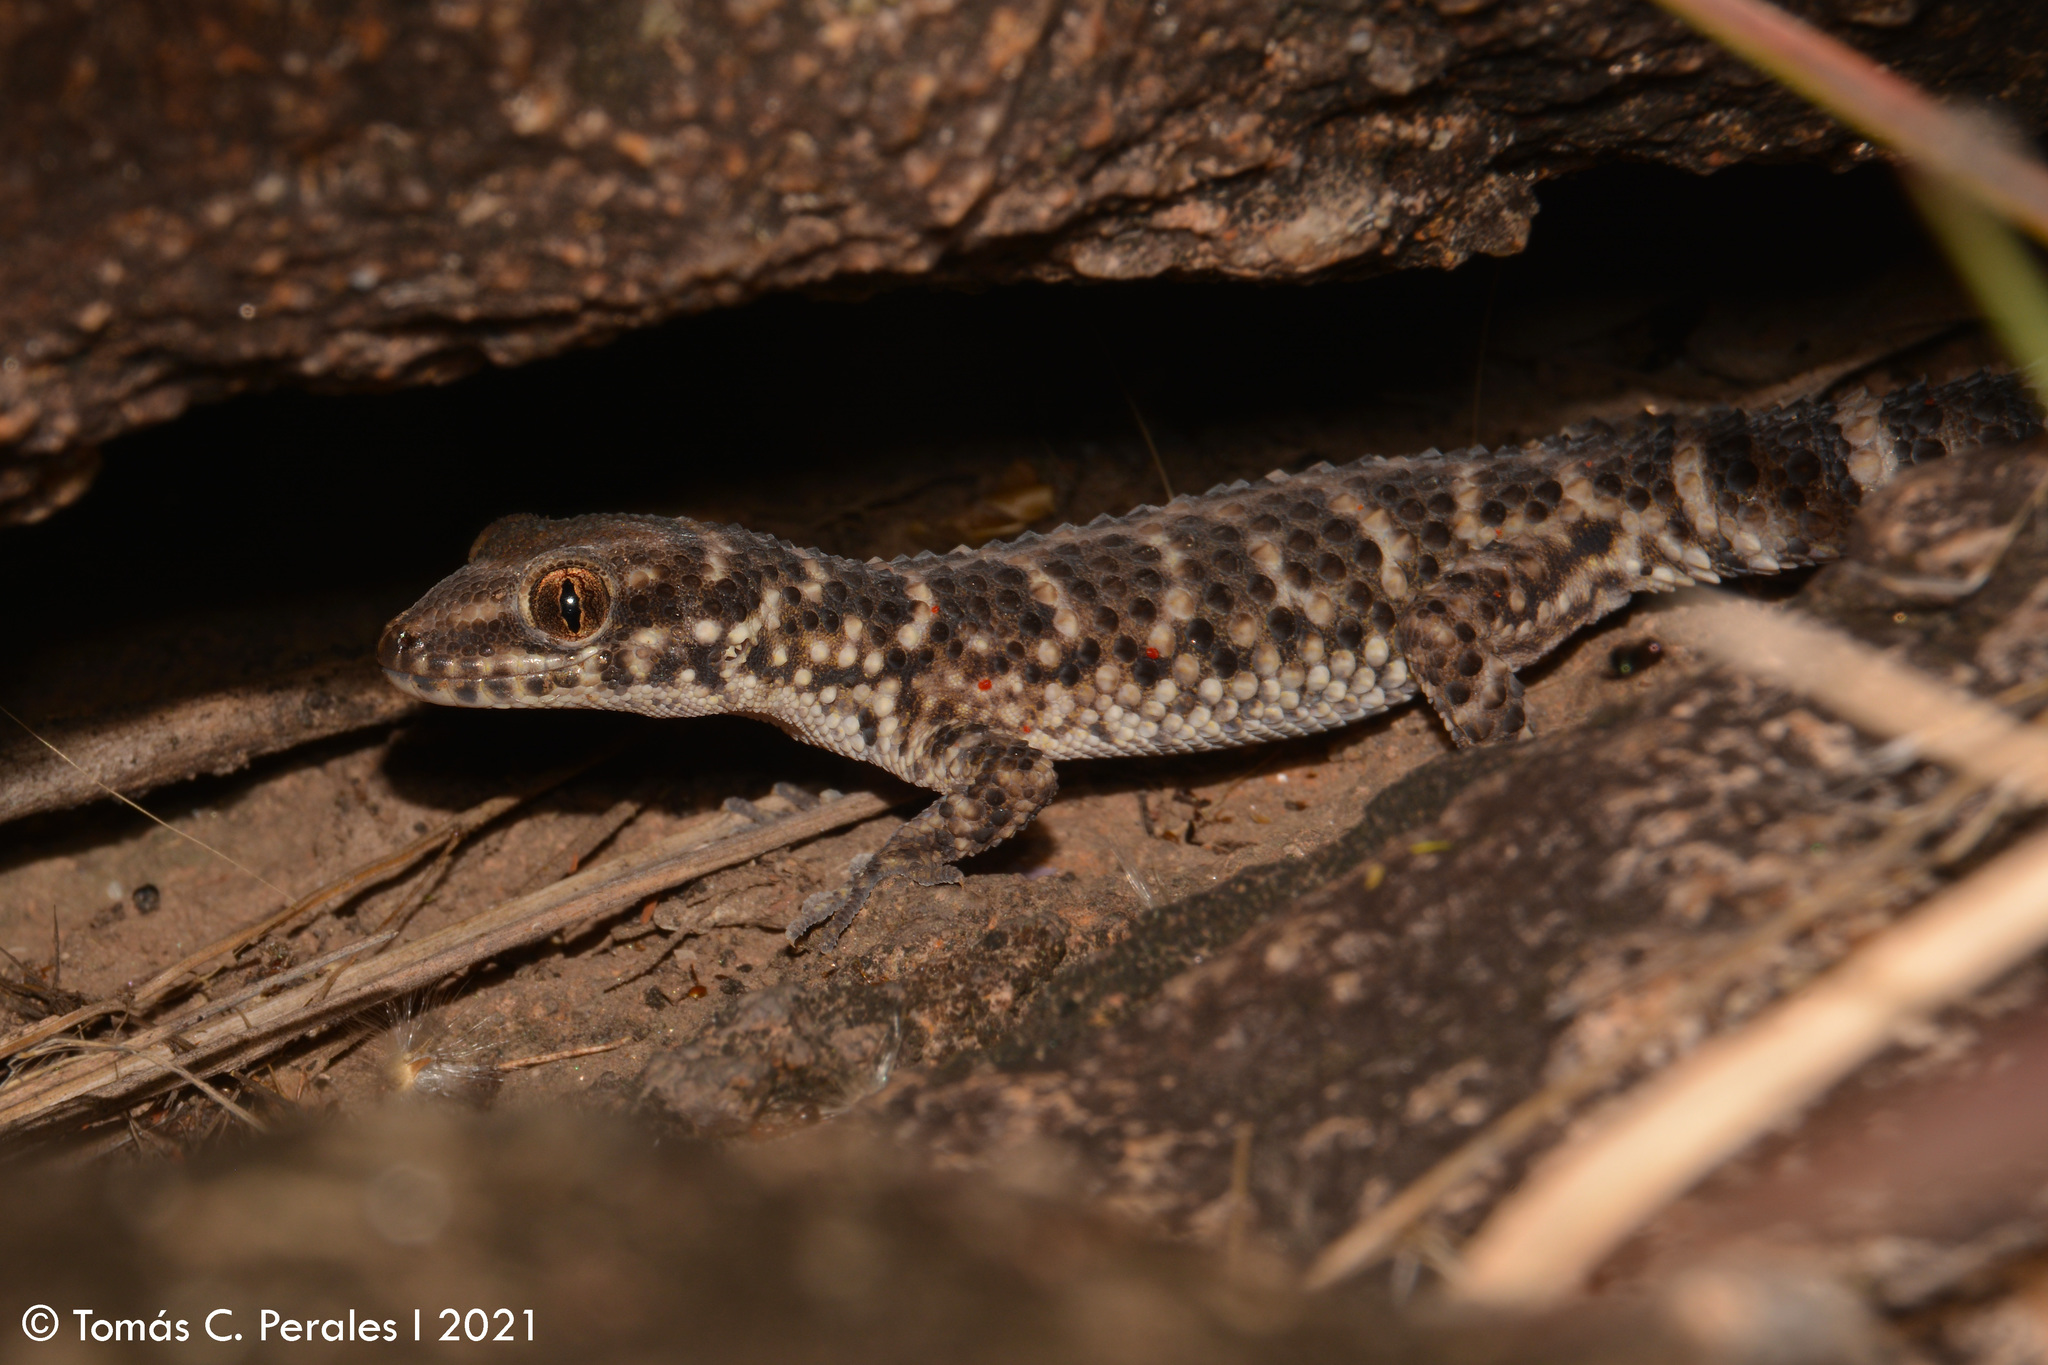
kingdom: Animalia
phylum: Chordata
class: Squamata
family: Phyllodactylidae
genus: Homonota
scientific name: Homonota horrida
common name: South american marked gecko
